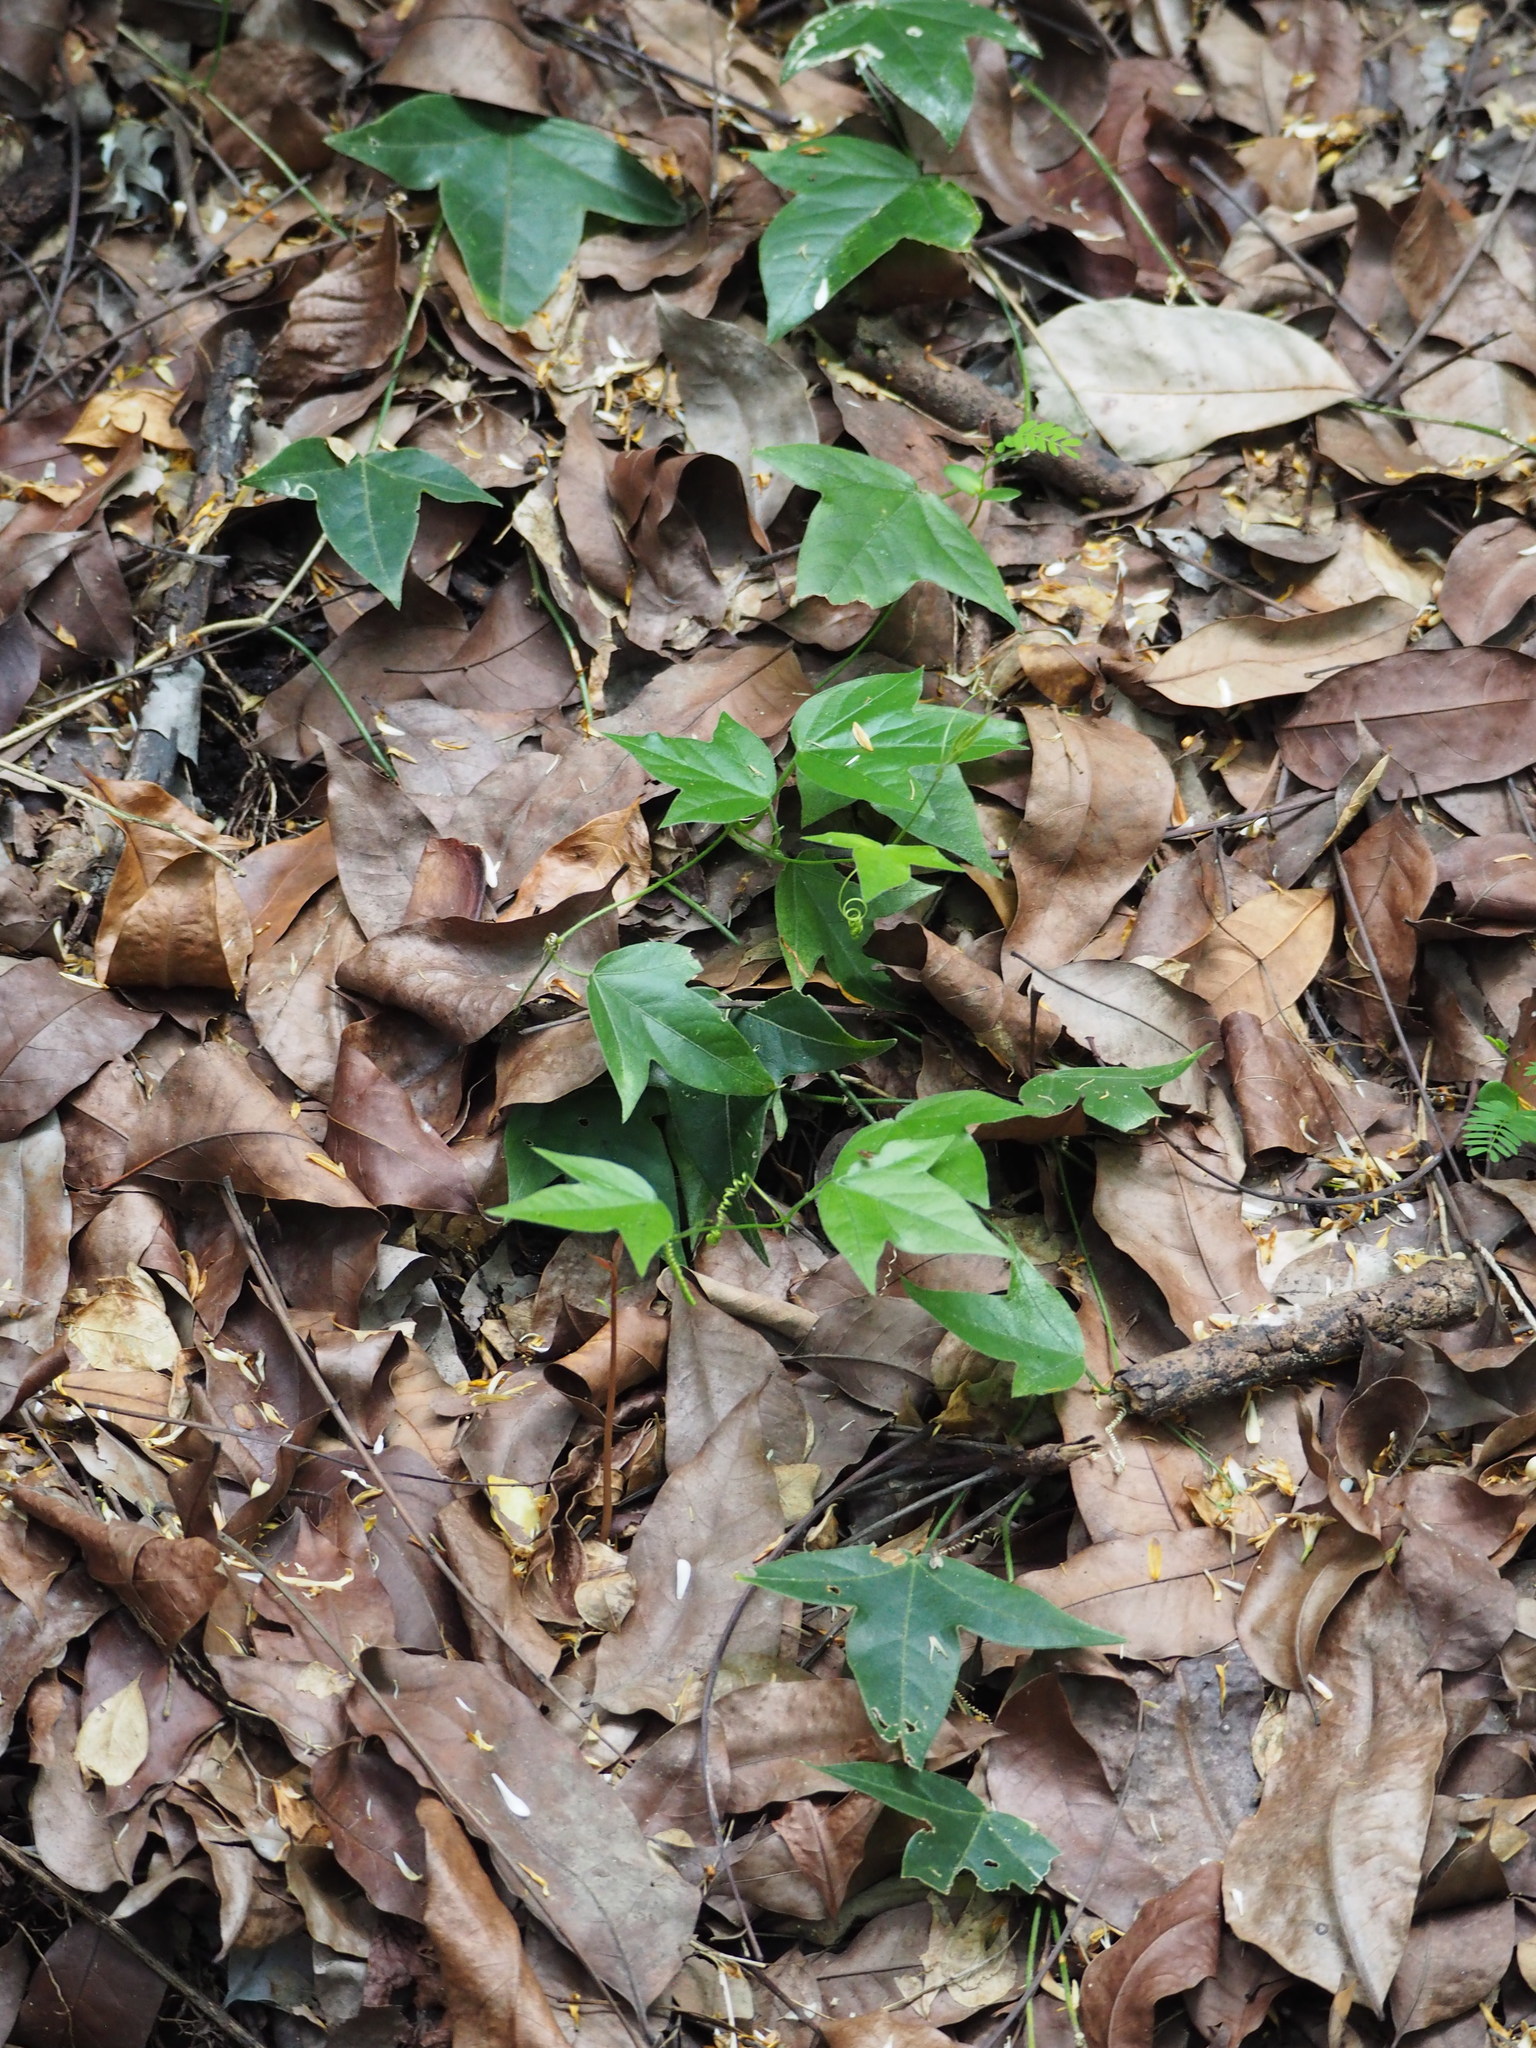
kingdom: Plantae
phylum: Tracheophyta
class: Magnoliopsida
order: Malpighiales
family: Passifloraceae
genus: Passiflora
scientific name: Passiflora suberosa
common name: Wild passionfruit
